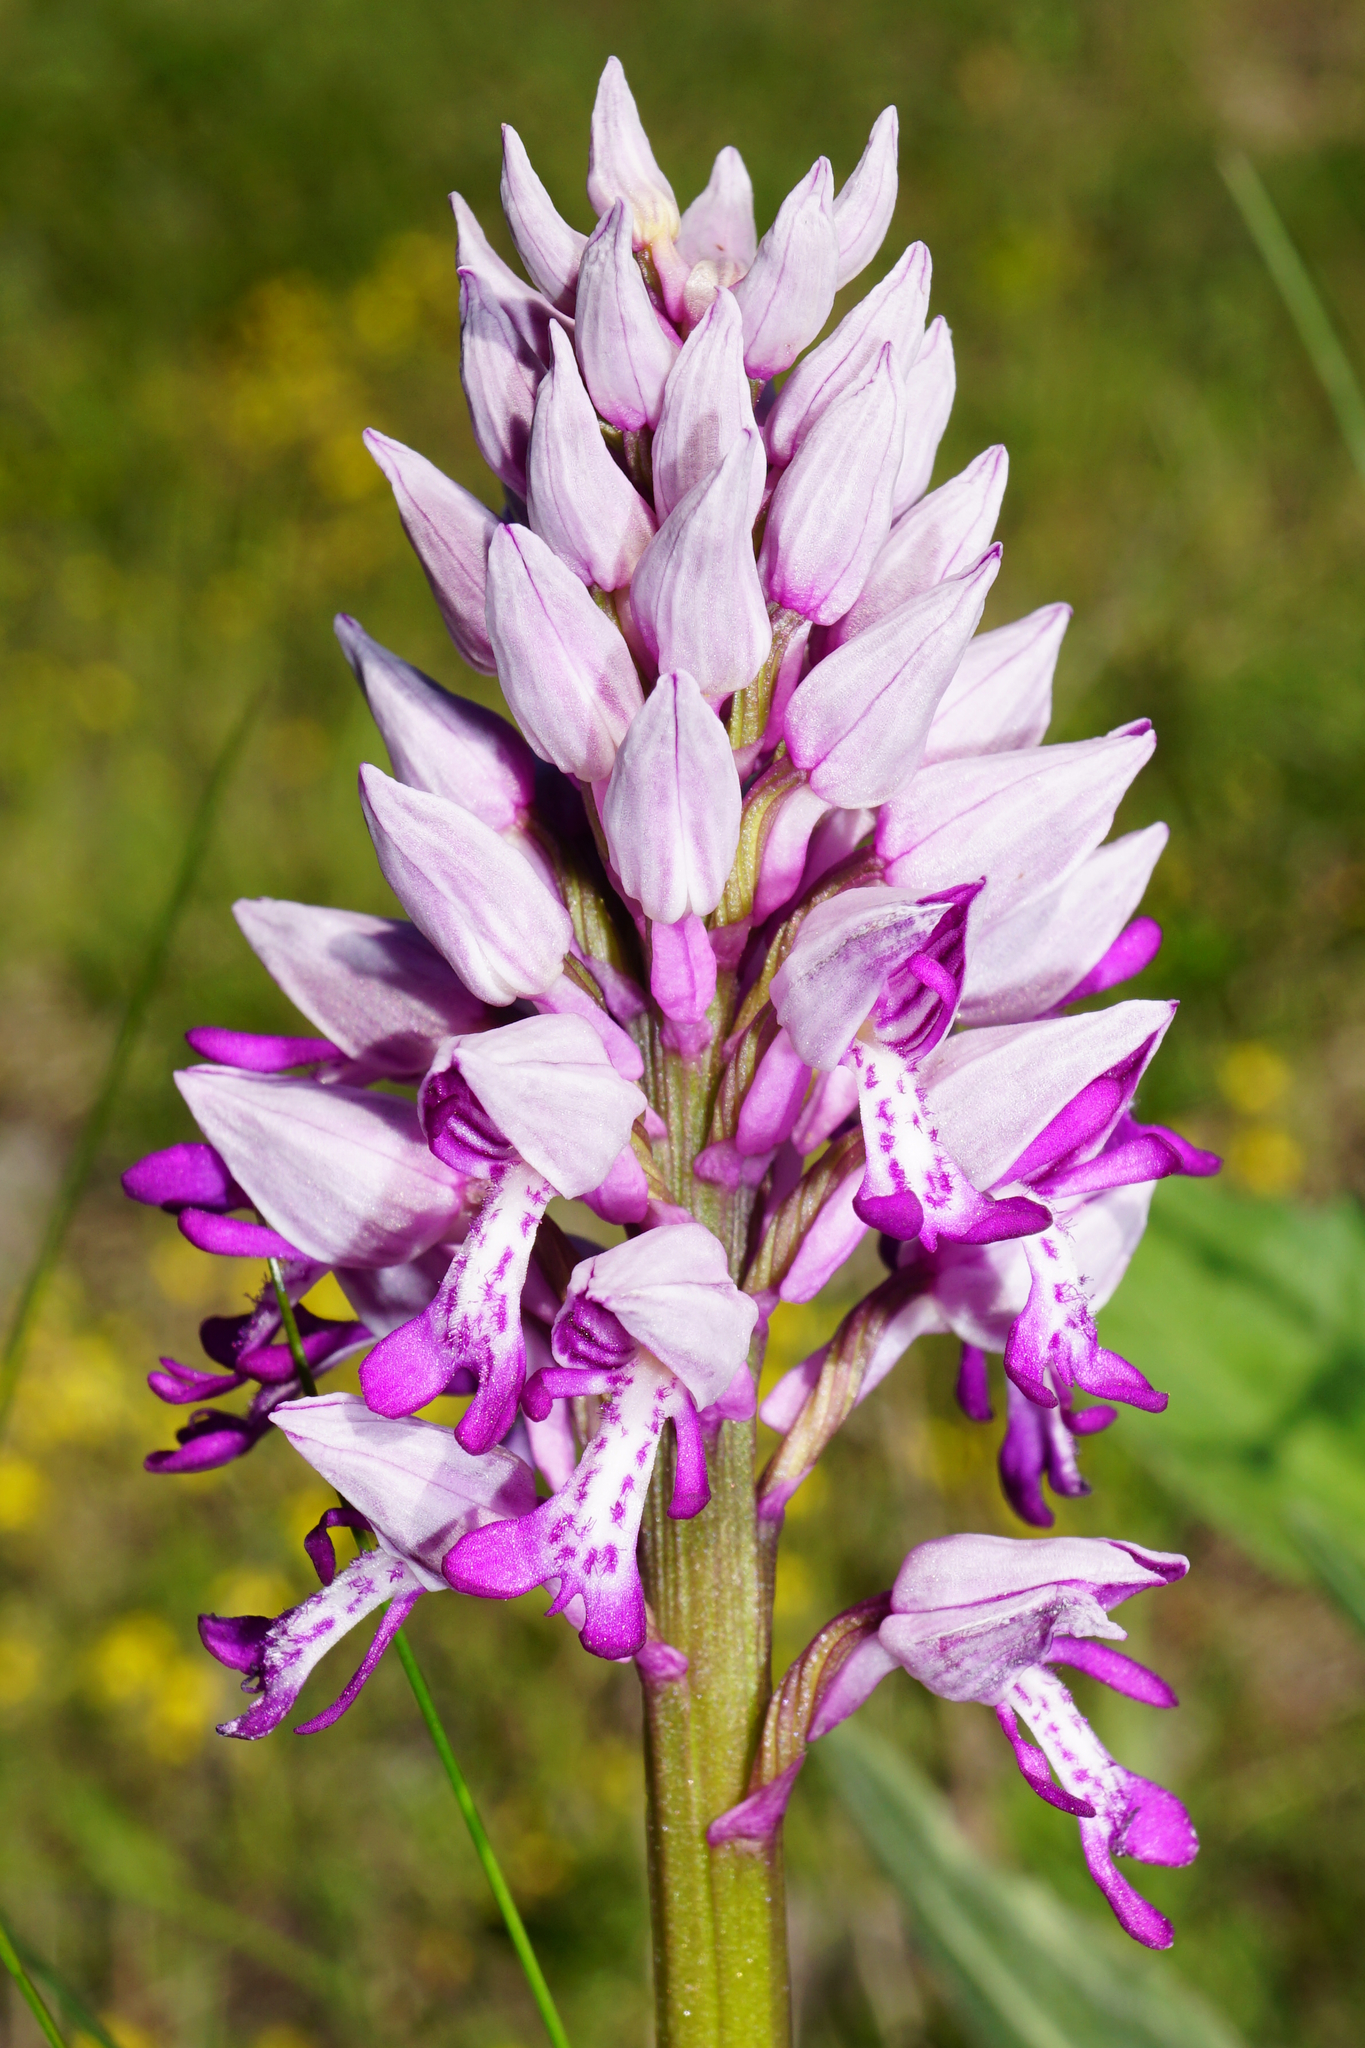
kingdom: Plantae
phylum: Tracheophyta
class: Liliopsida
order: Asparagales
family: Orchidaceae
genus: Orchis
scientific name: Orchis militaris
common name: Military orchid
